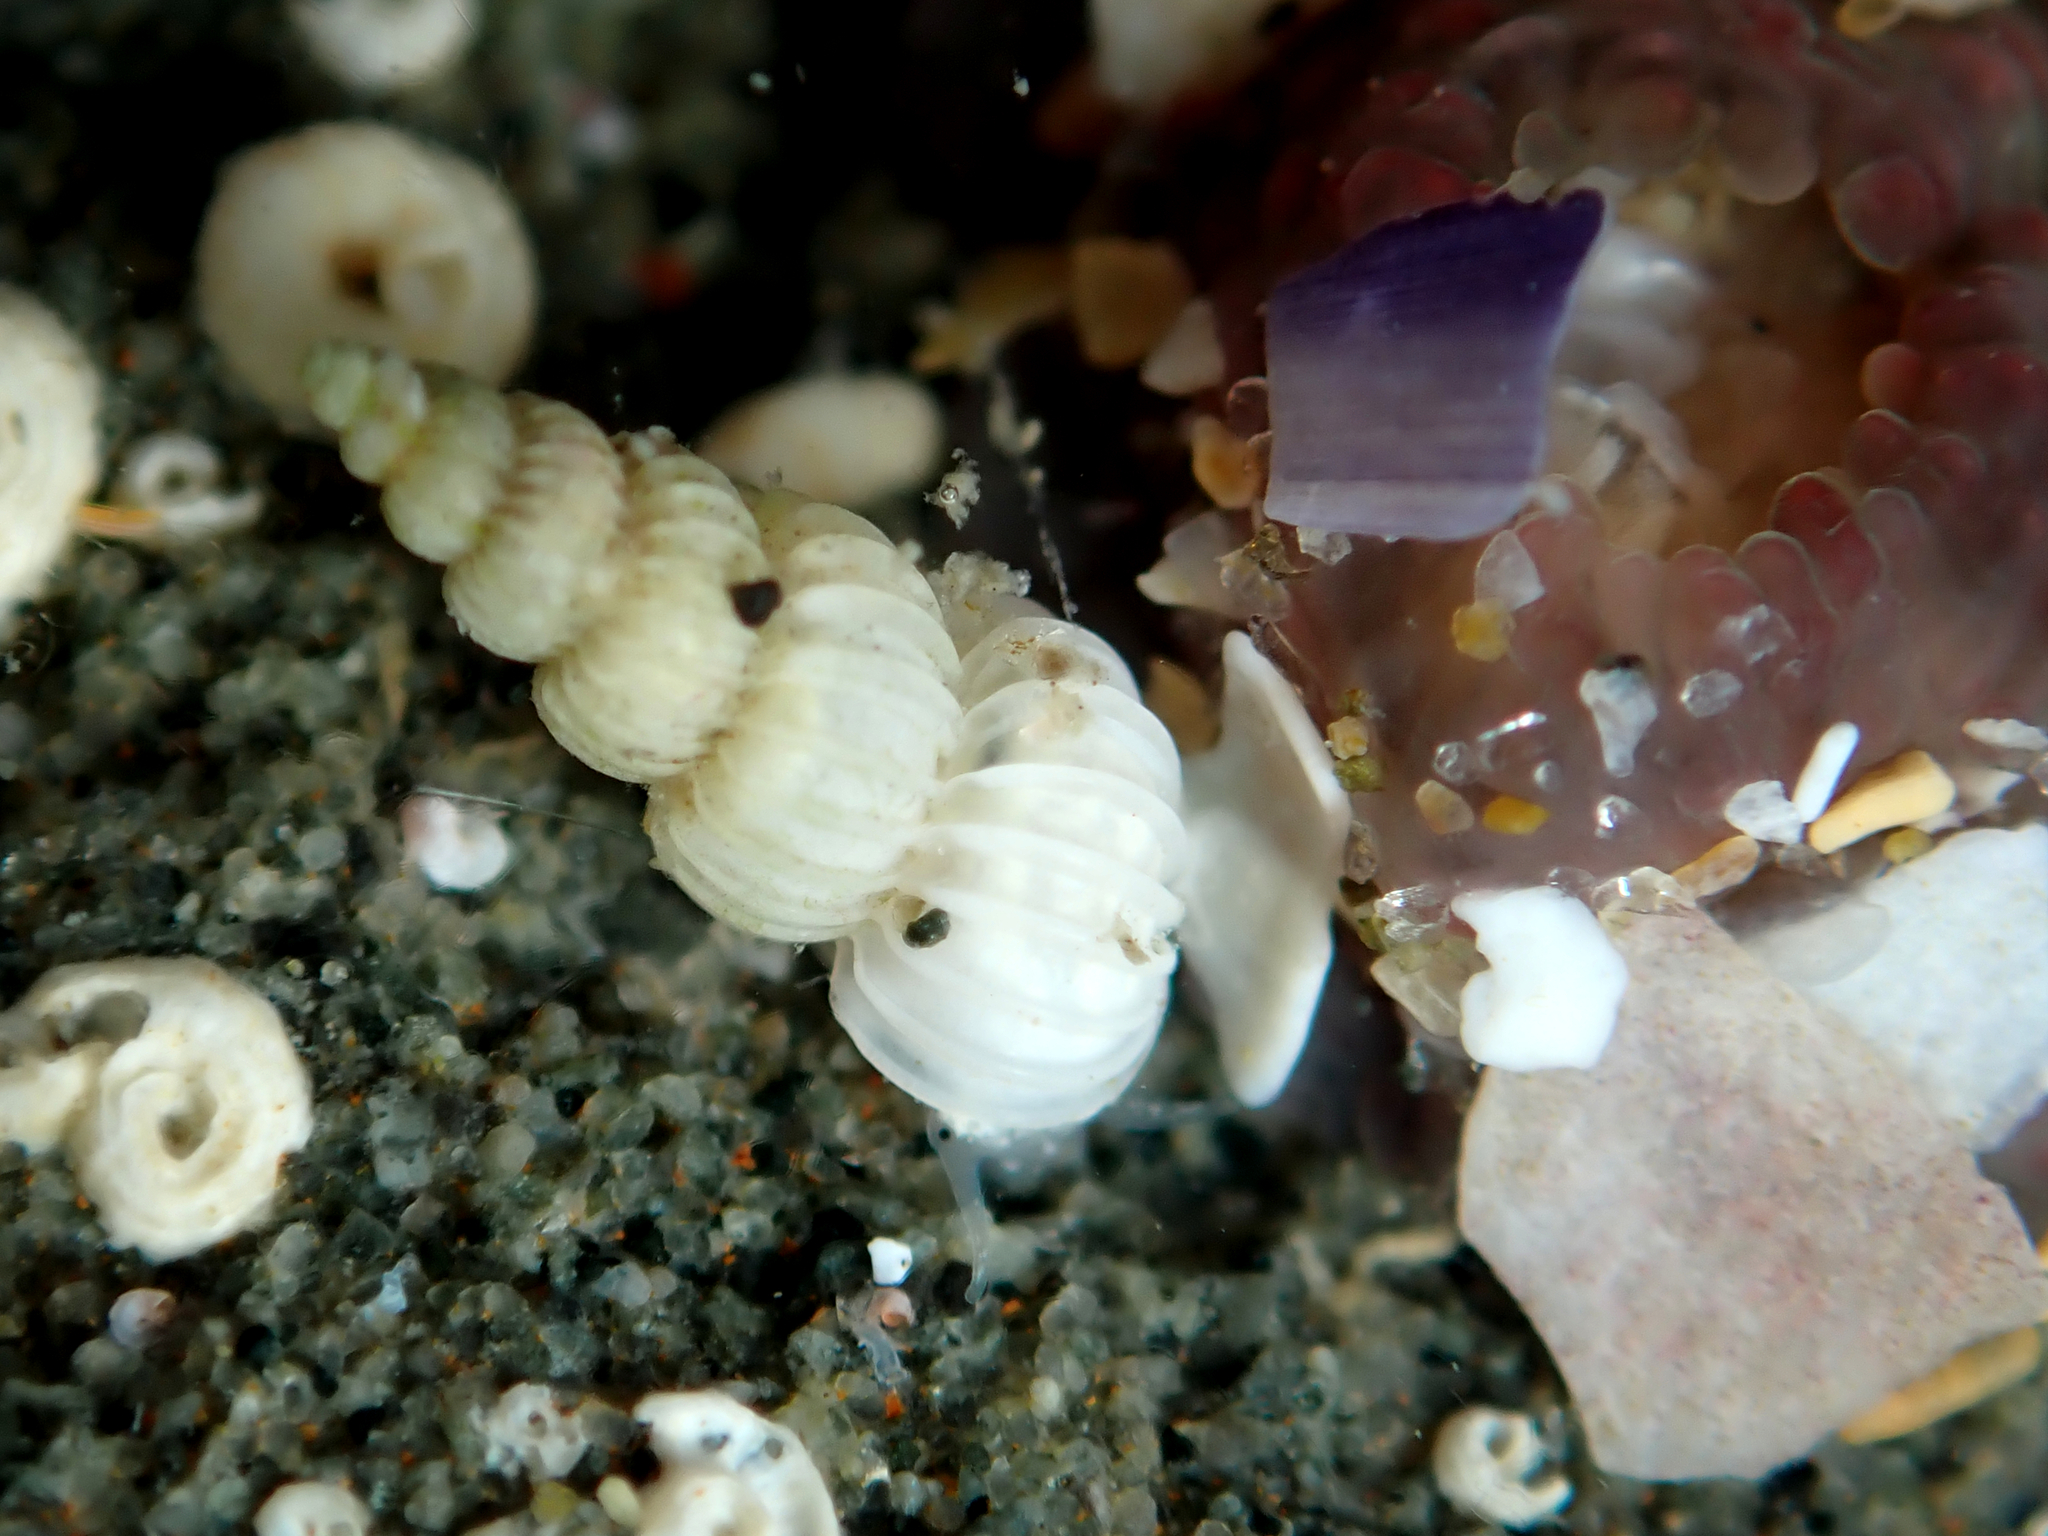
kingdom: Animalia
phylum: Mollusca
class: Gastropoda
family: Epitoniidae
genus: Epitonium
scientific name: Epitonium jukesianum
